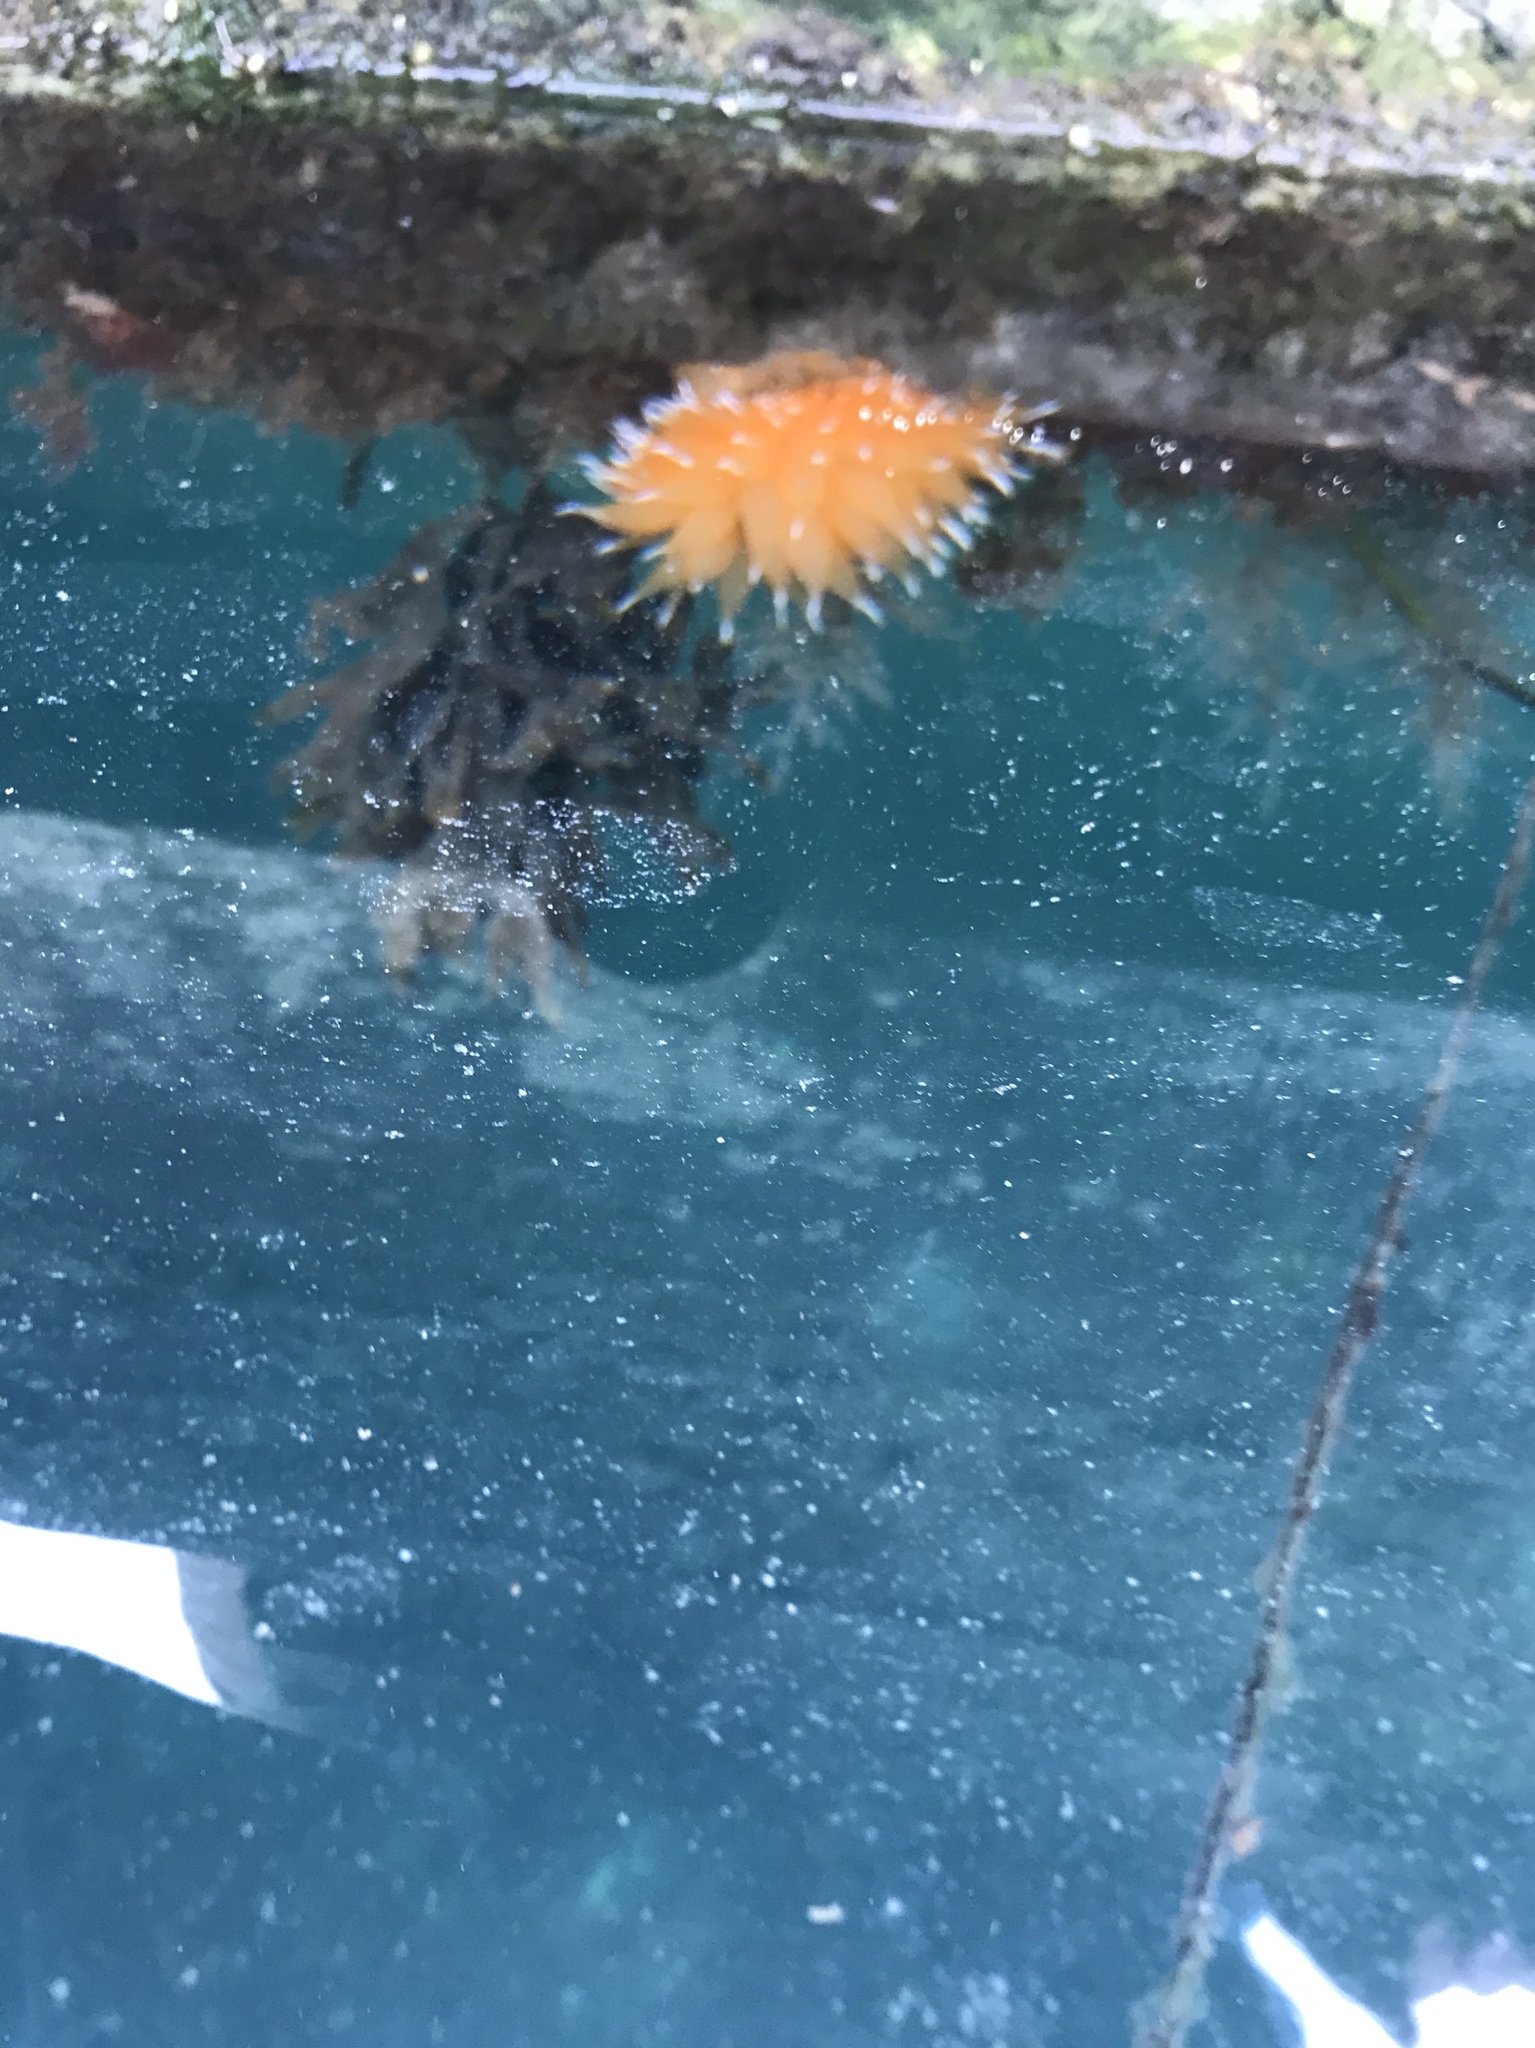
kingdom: Animalia
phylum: Mollusca
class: Gastropoda
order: Nudibranchia
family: Dironidae
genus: Dirona
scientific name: Dirona pellucida
